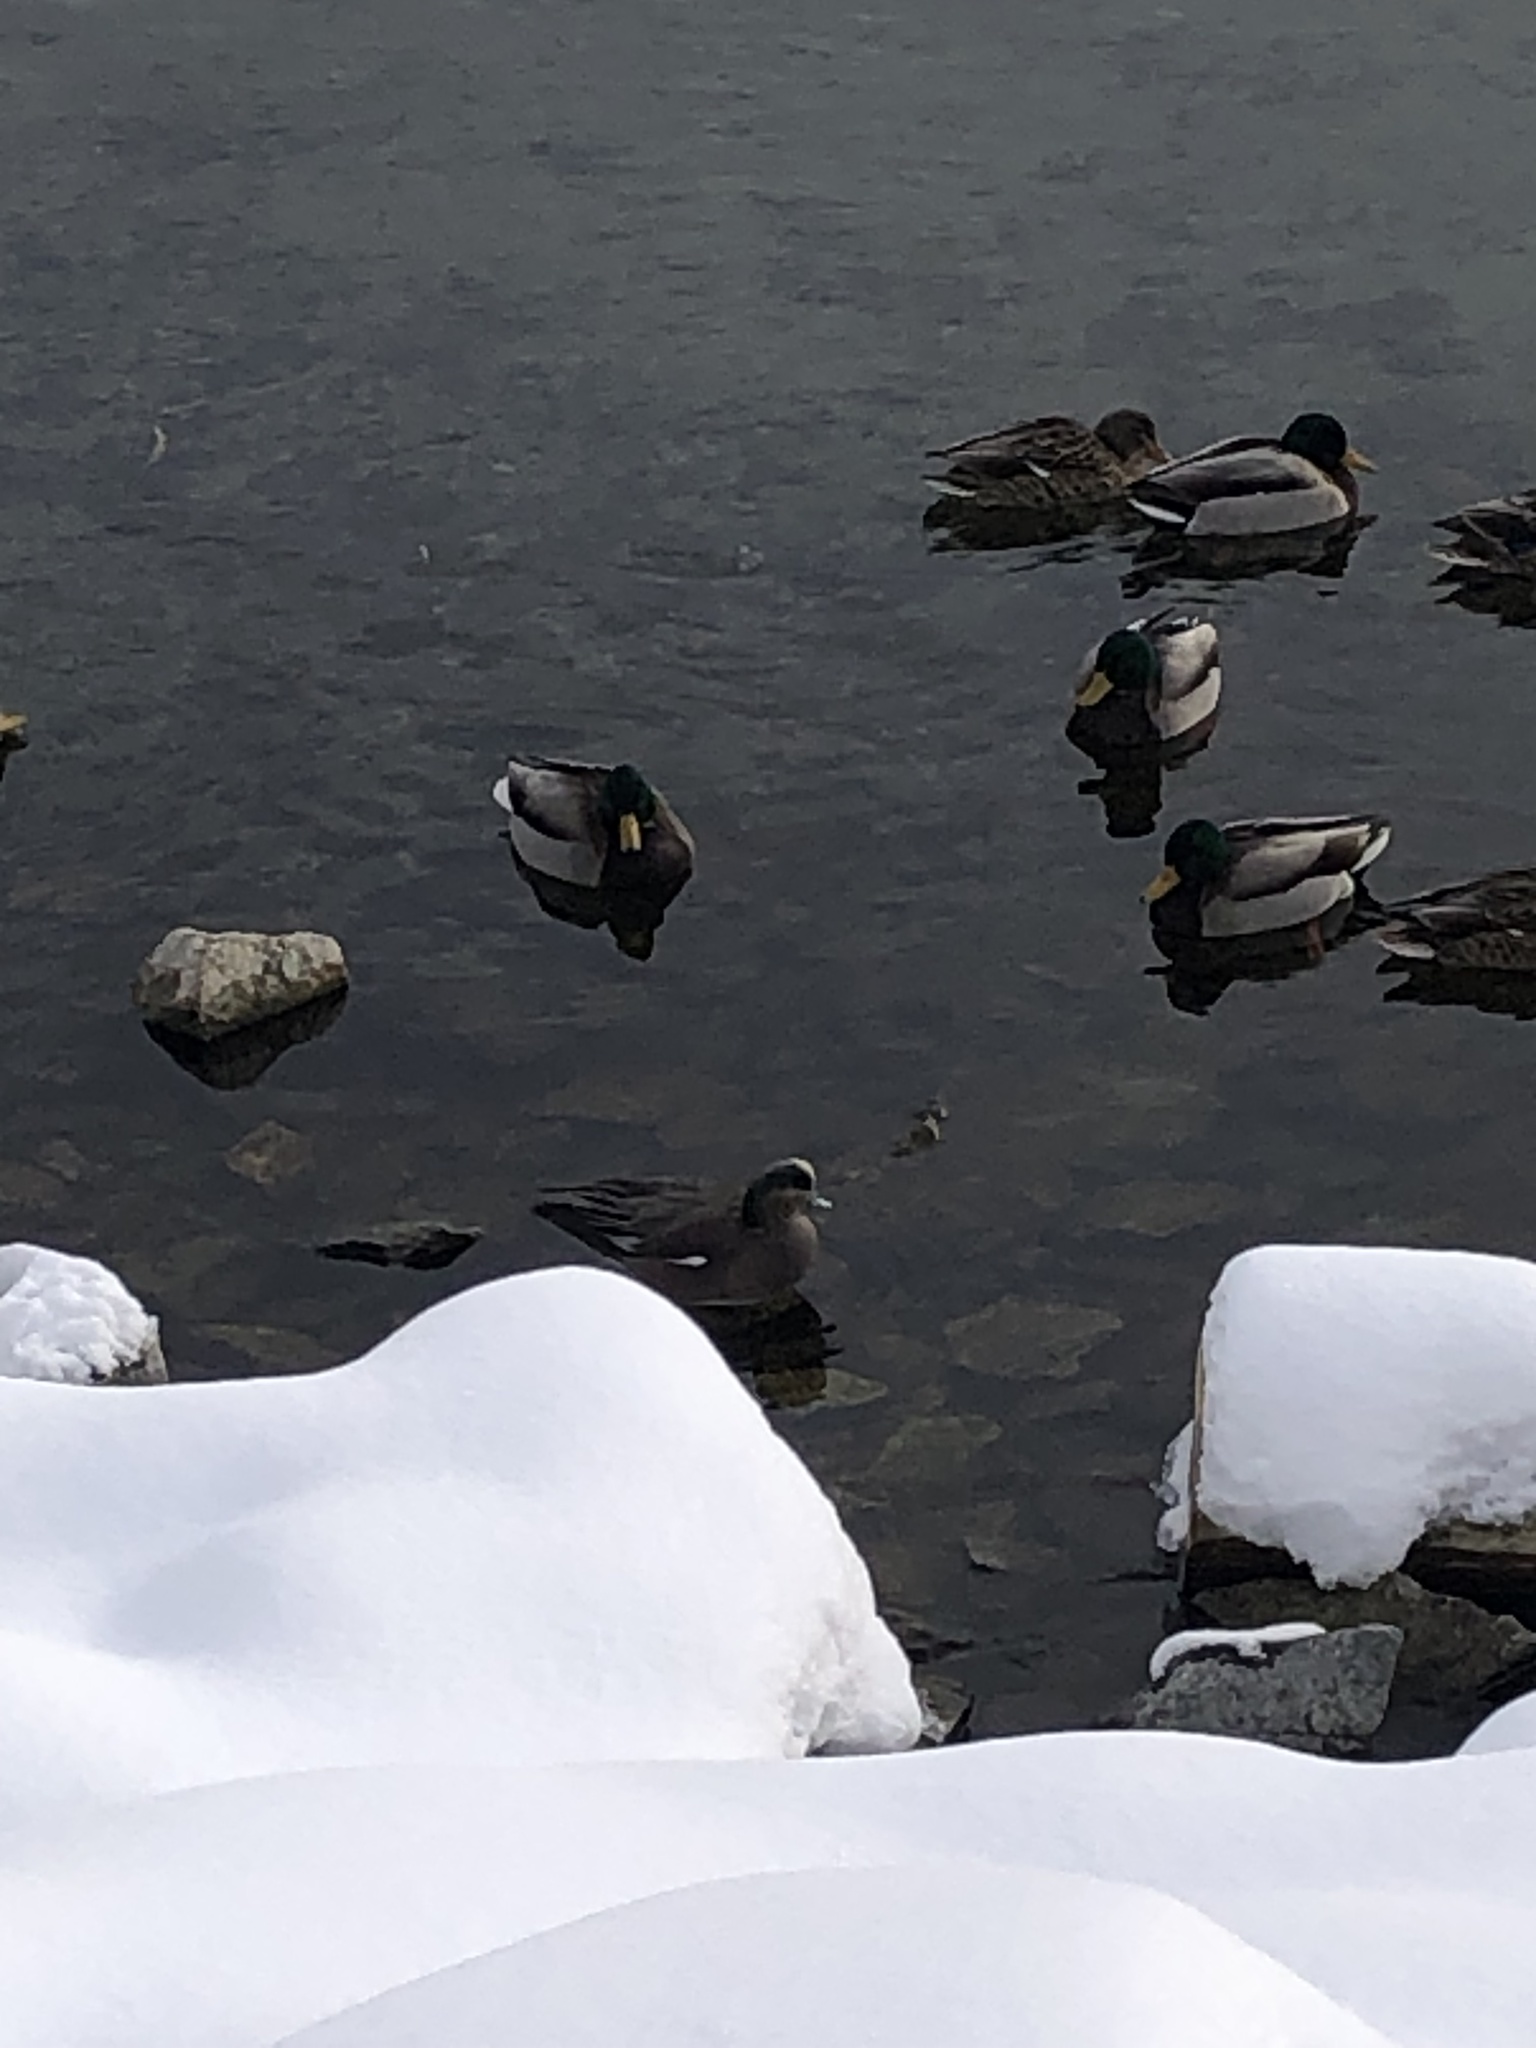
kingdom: Animalia
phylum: Chordata
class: Aves
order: Anseriformes
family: Anatidae
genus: Mareca
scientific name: Mareca americana
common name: American wigeon
